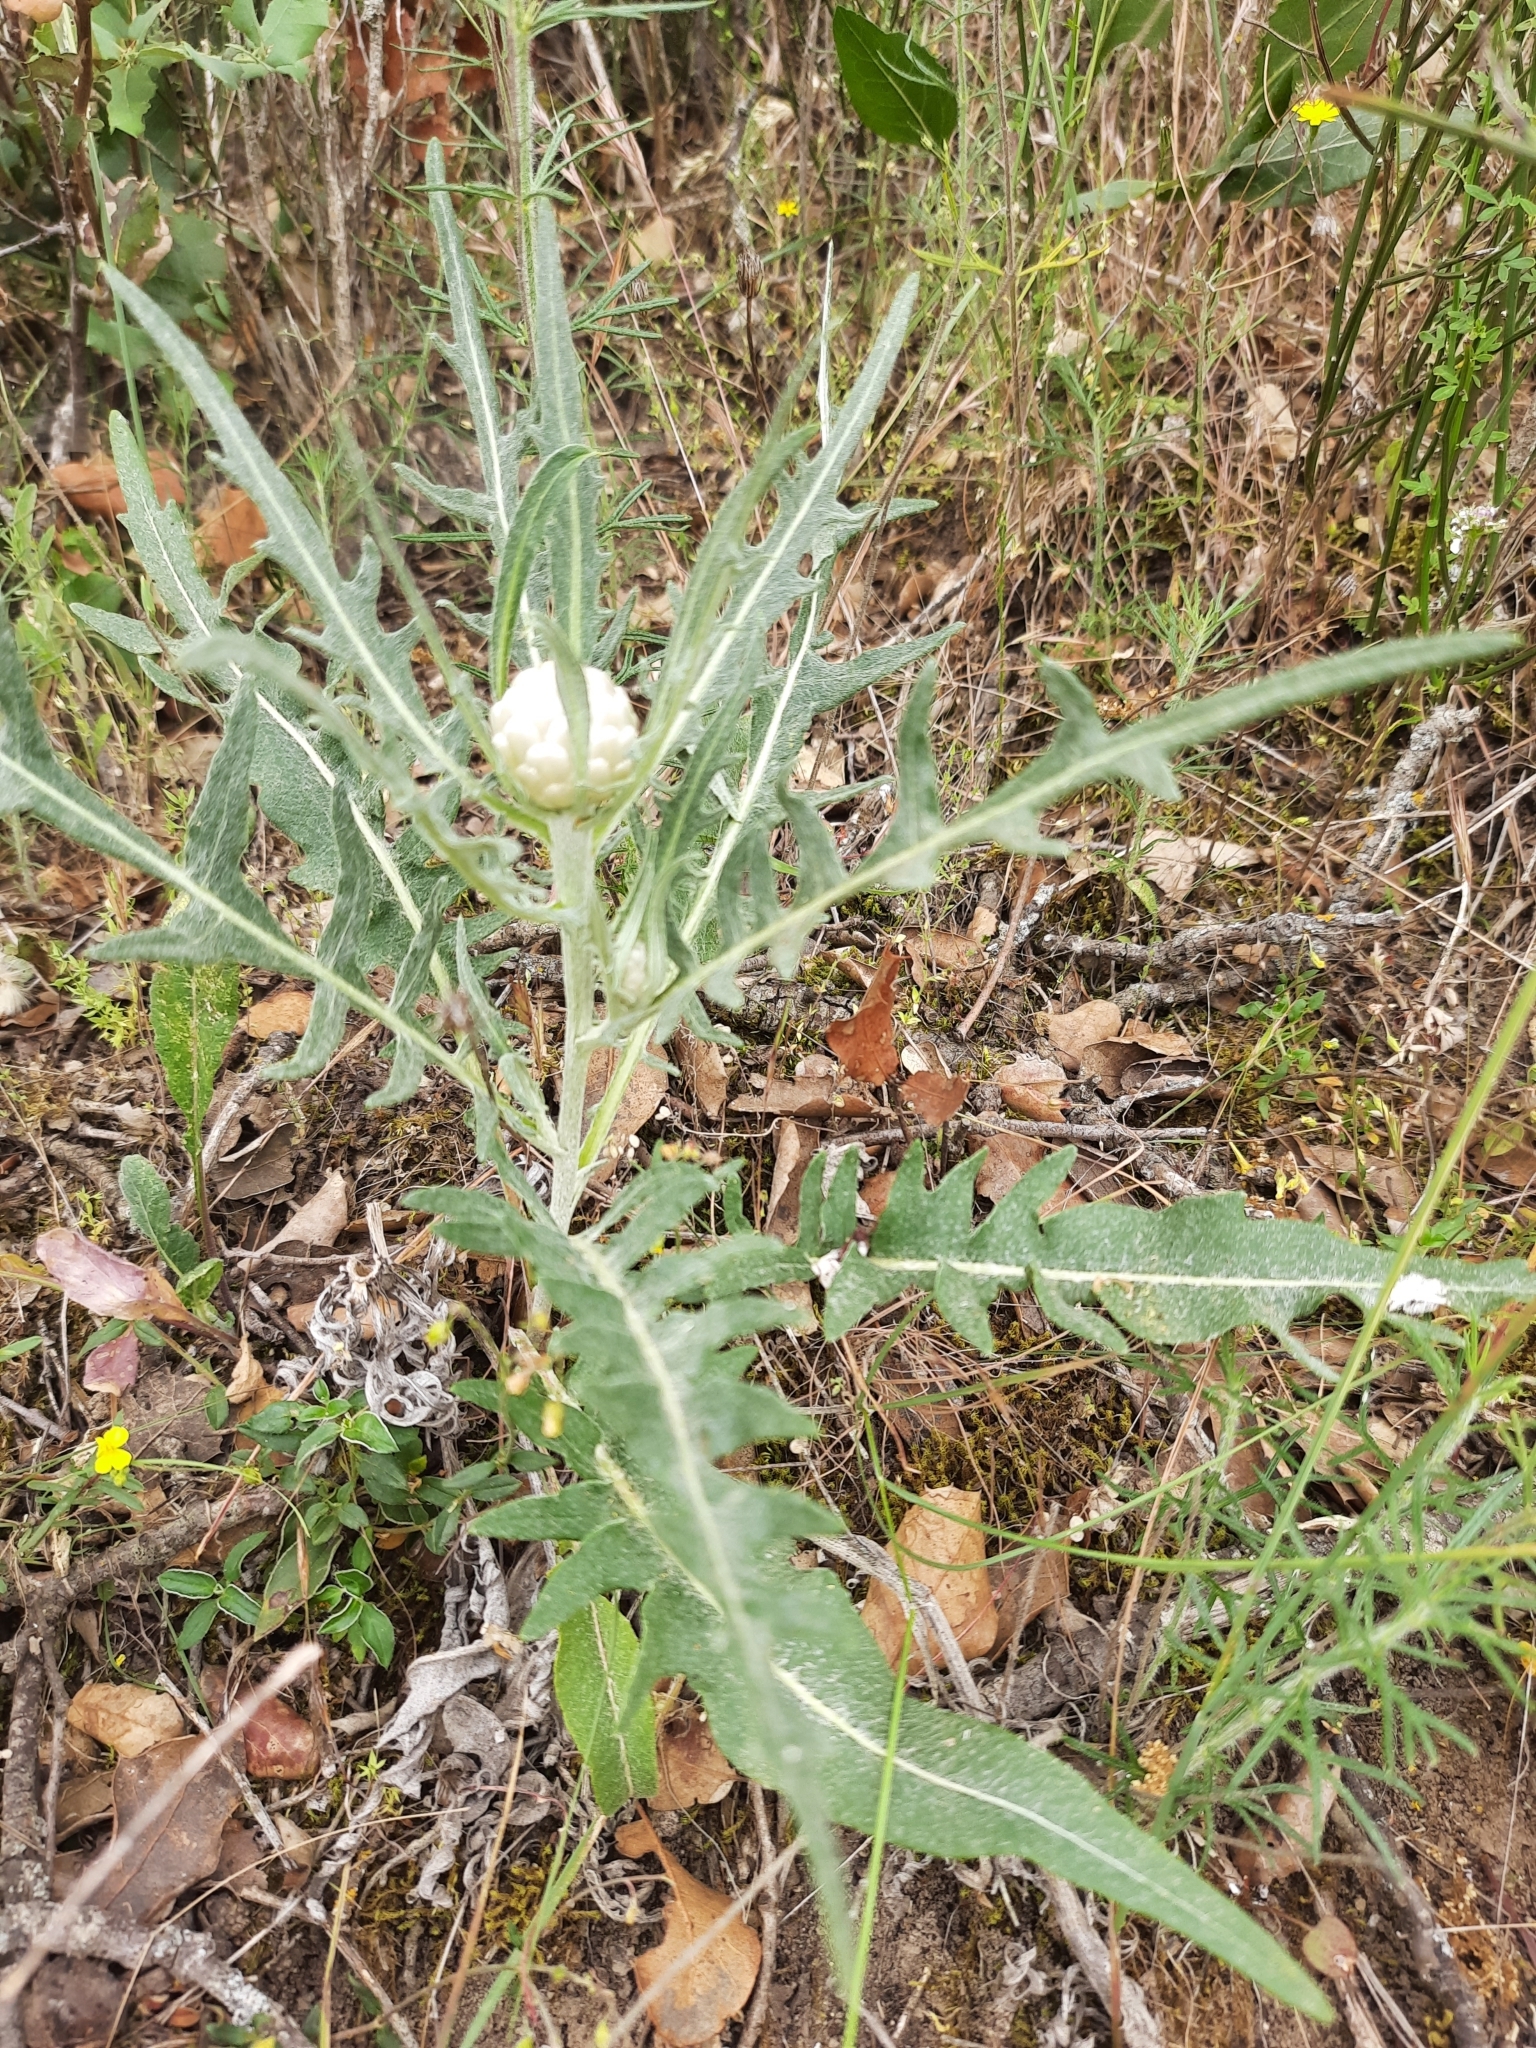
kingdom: Plantae
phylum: Tracheophyta
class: Magnoliopsida
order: Asterales
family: Asteraceae
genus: Leuzea
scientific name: Leuzea conifera
